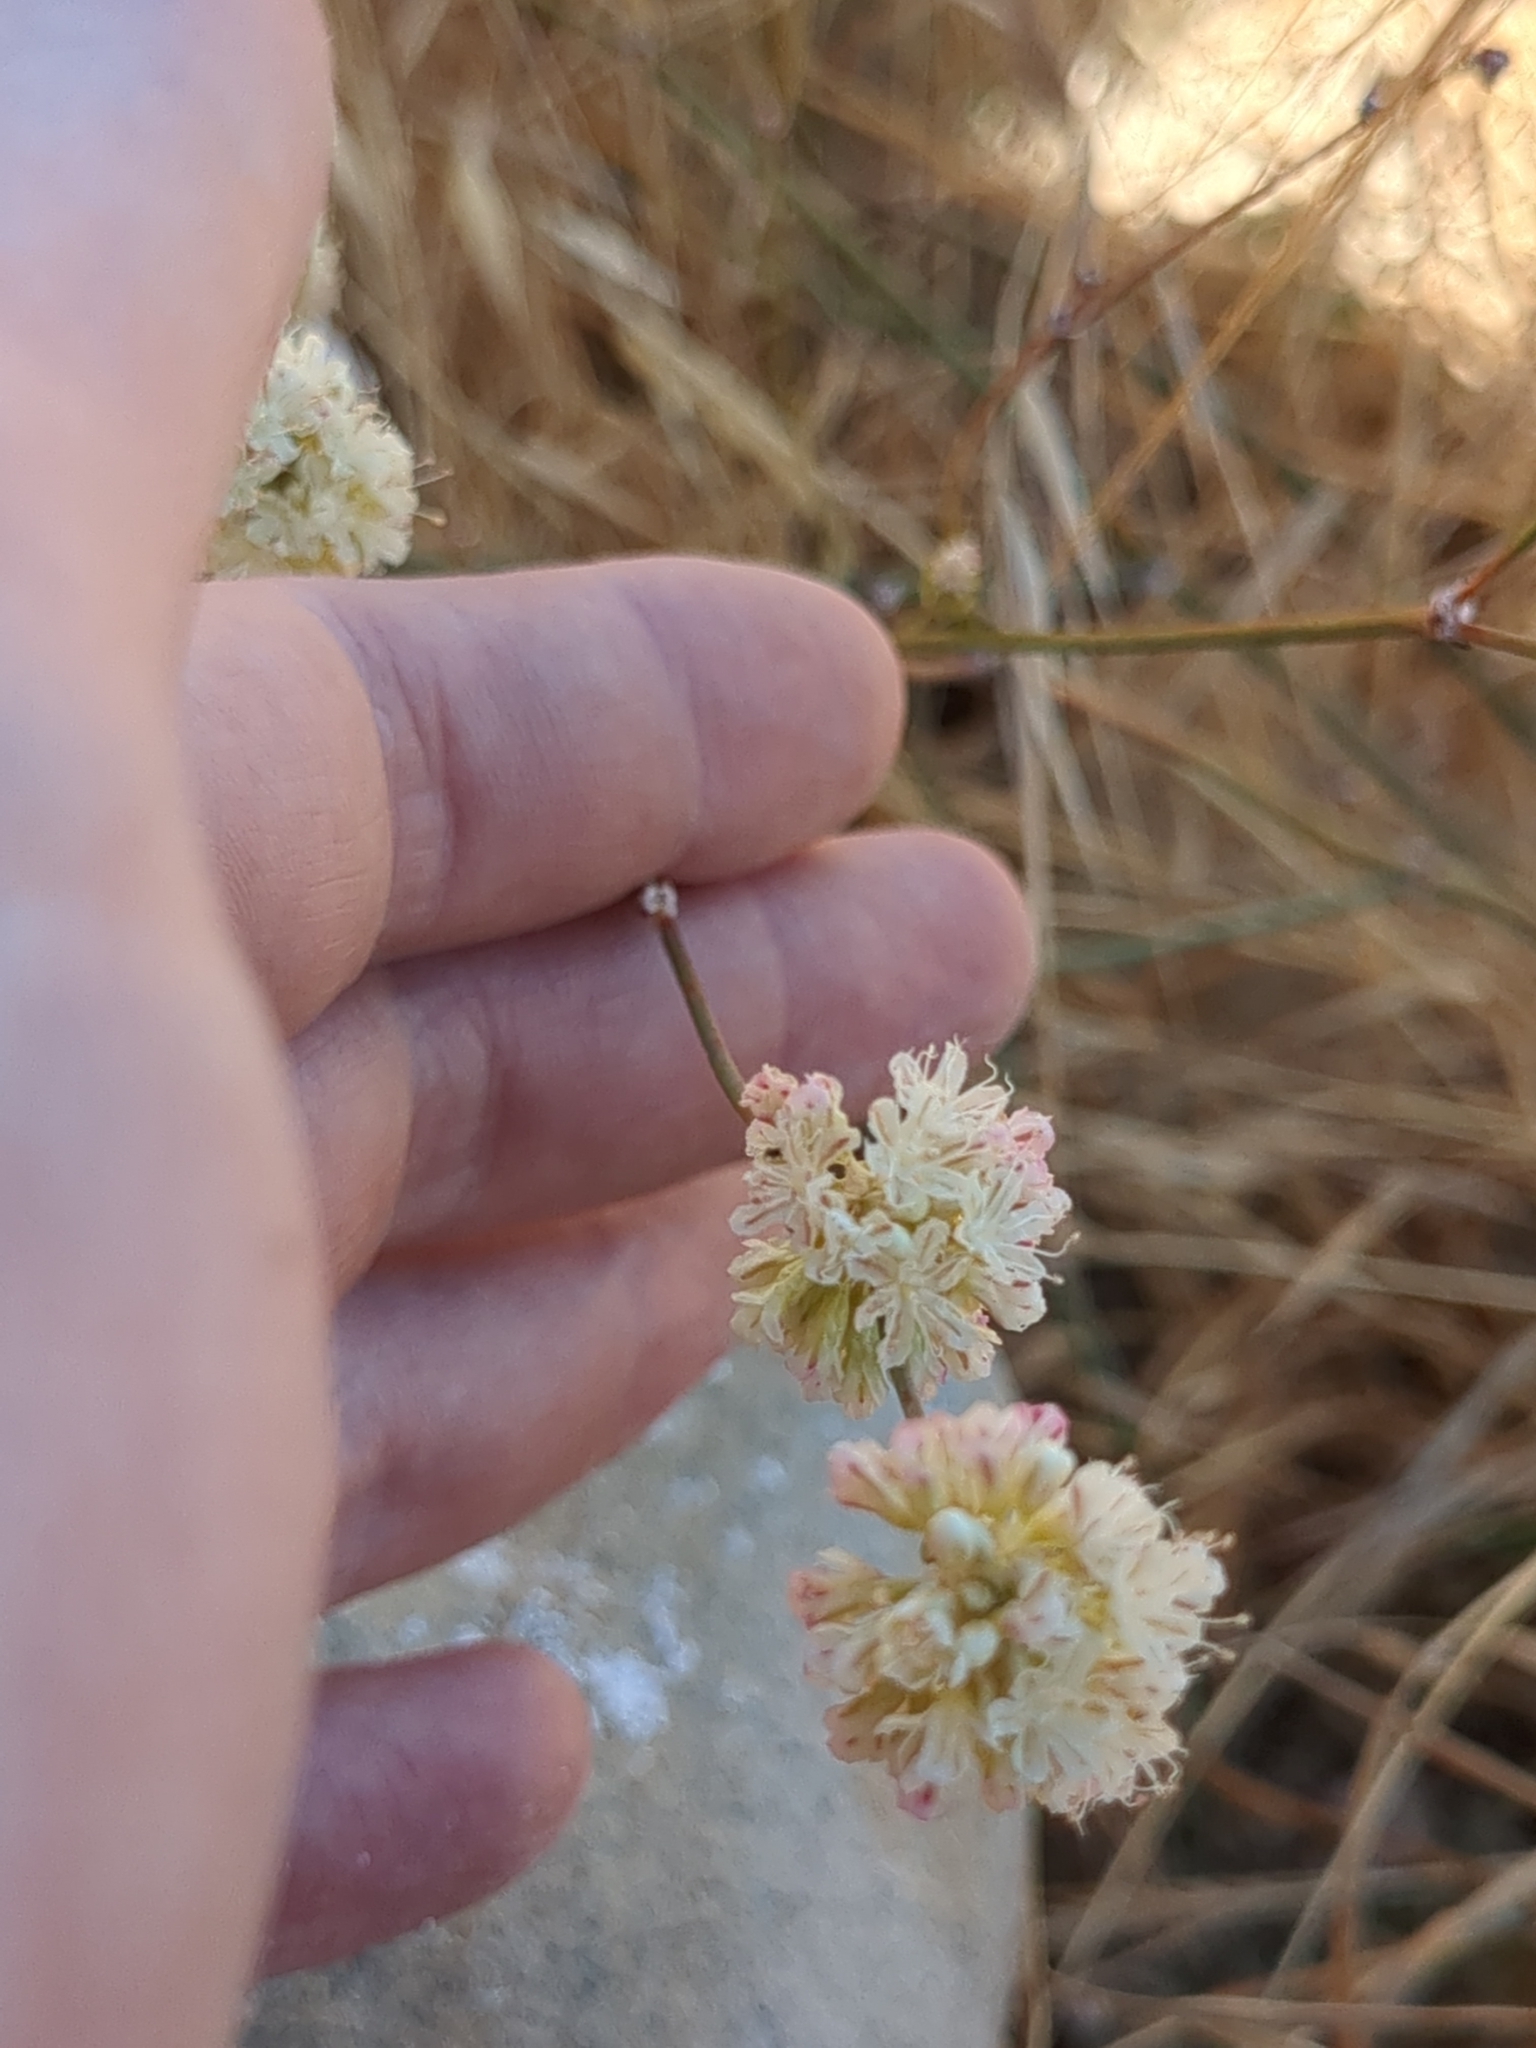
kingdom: Plantae
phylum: Tracheophyta
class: Magnoliopsida
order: Caryophyllales
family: Polygonaceae
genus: Eriogonum
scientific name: Eriogonum nudum
